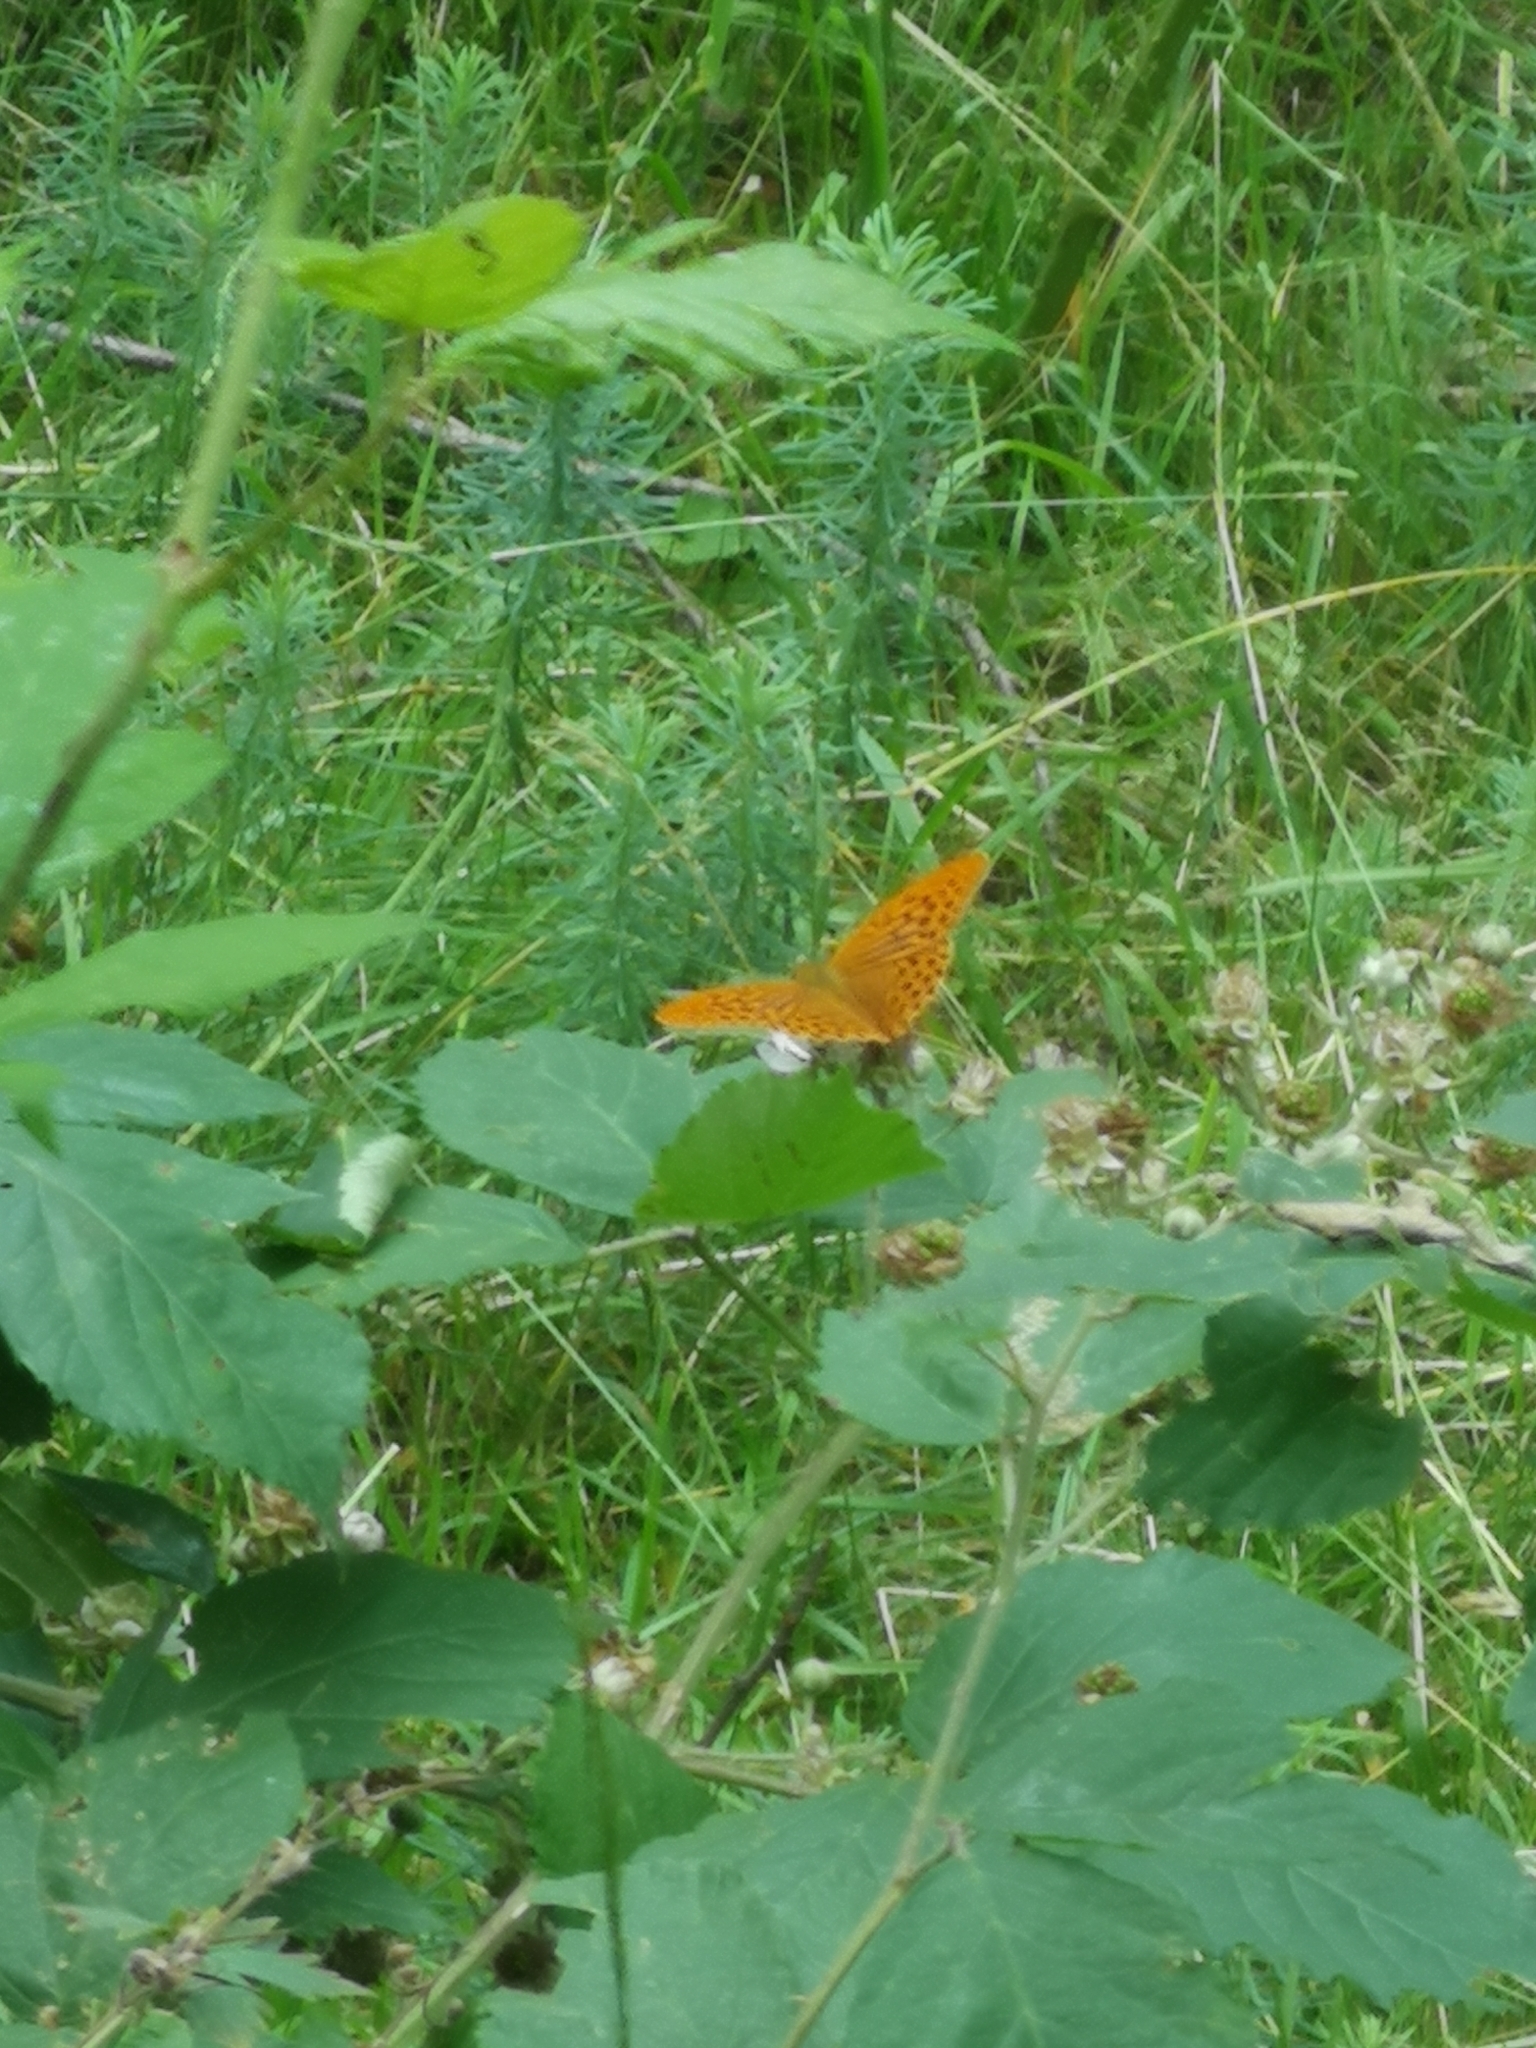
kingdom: Animalia
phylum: Arthropoda
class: Insecta
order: Lepidoptera
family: Nymphalidae
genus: Argynnis
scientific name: Argynnis paphia
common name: Silver-washed fritillary
